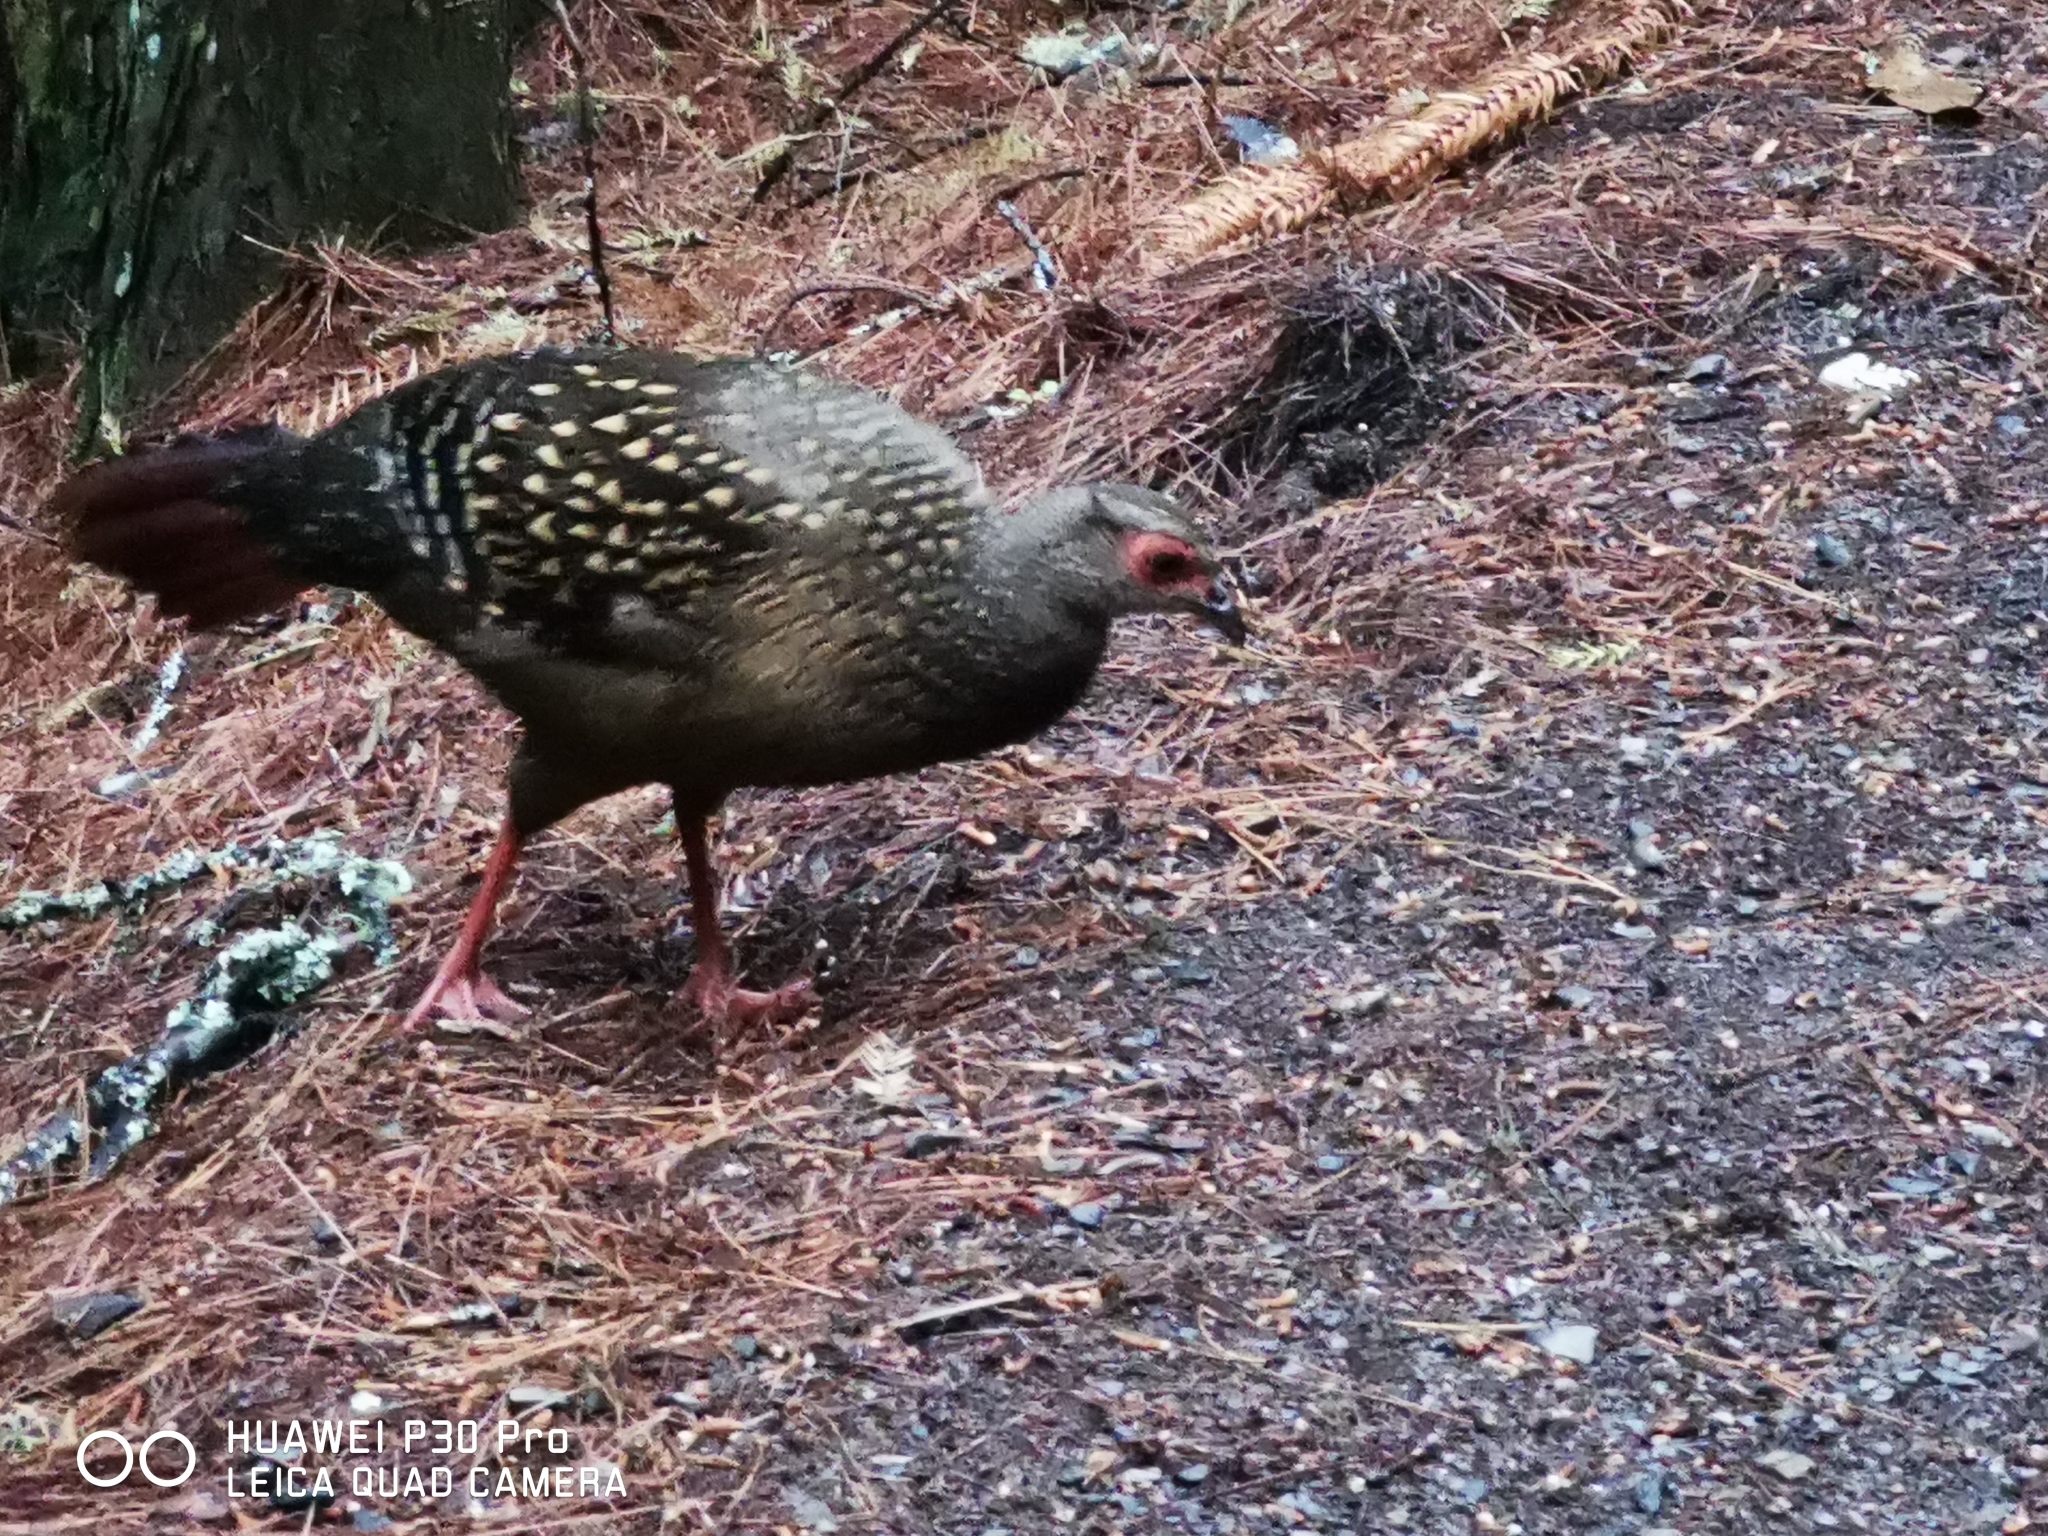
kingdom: Animalia
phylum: Chordata
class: Aves
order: Galliformes
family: Phasianidae
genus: Lophura
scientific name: Lophura swinhoii
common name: Swinhoe's pheasant
